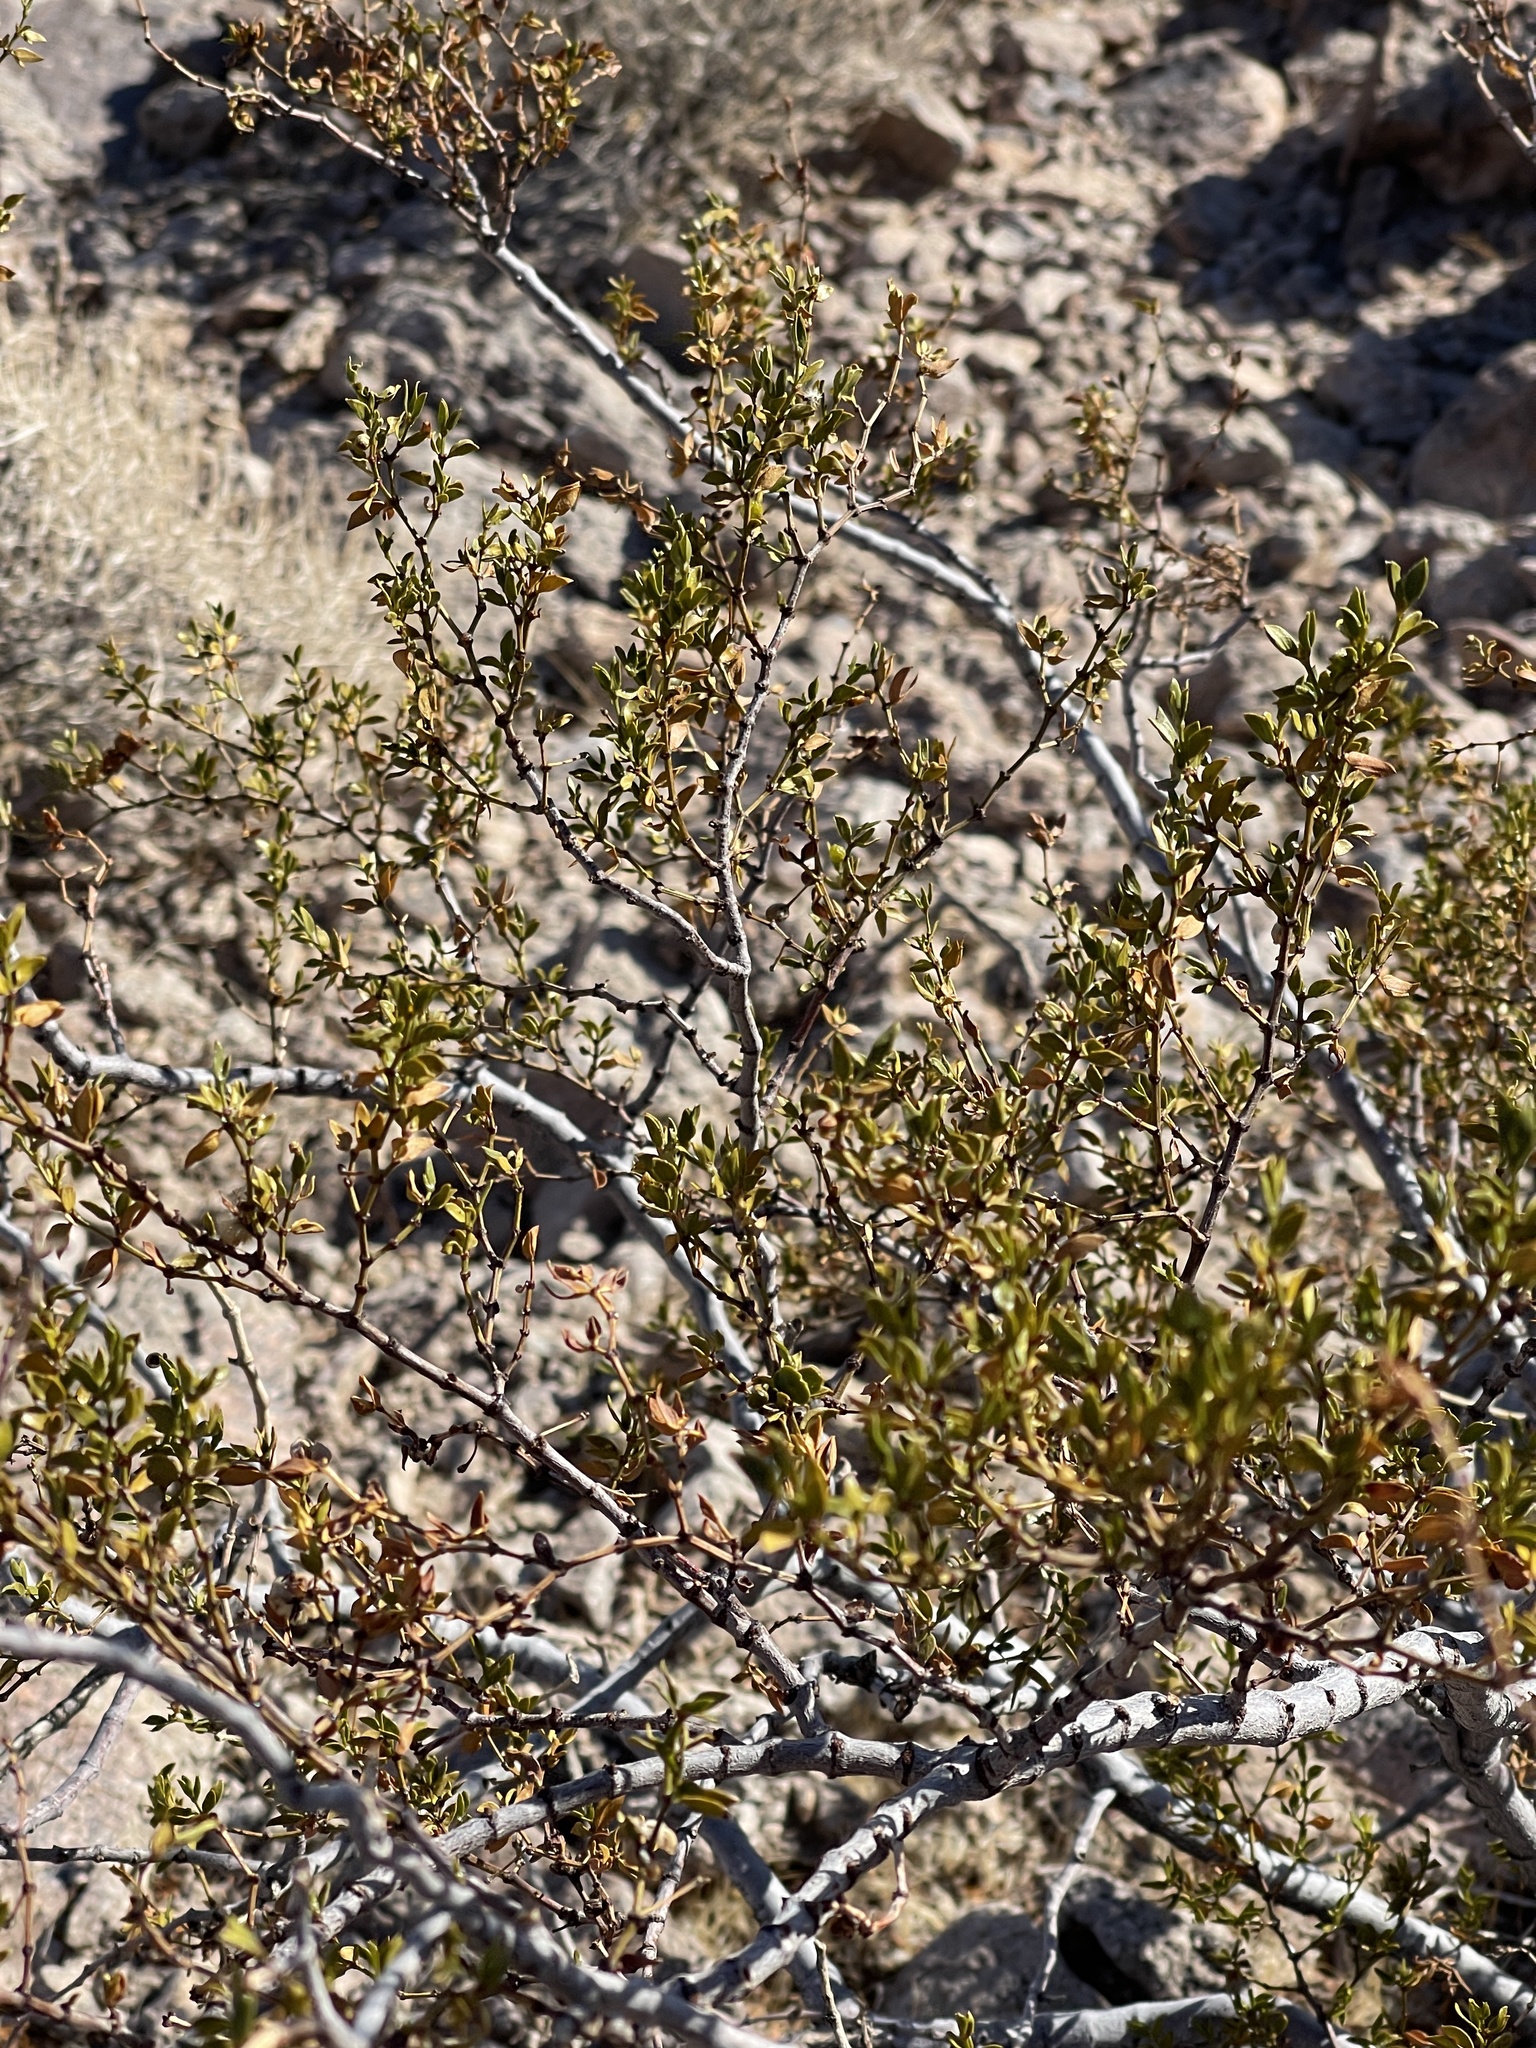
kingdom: Plantae
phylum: Tracheophyta
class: Magnoliopsida
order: Zygophyllales
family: Zygophyllaceae
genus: Larrea
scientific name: Larrea tridentata
